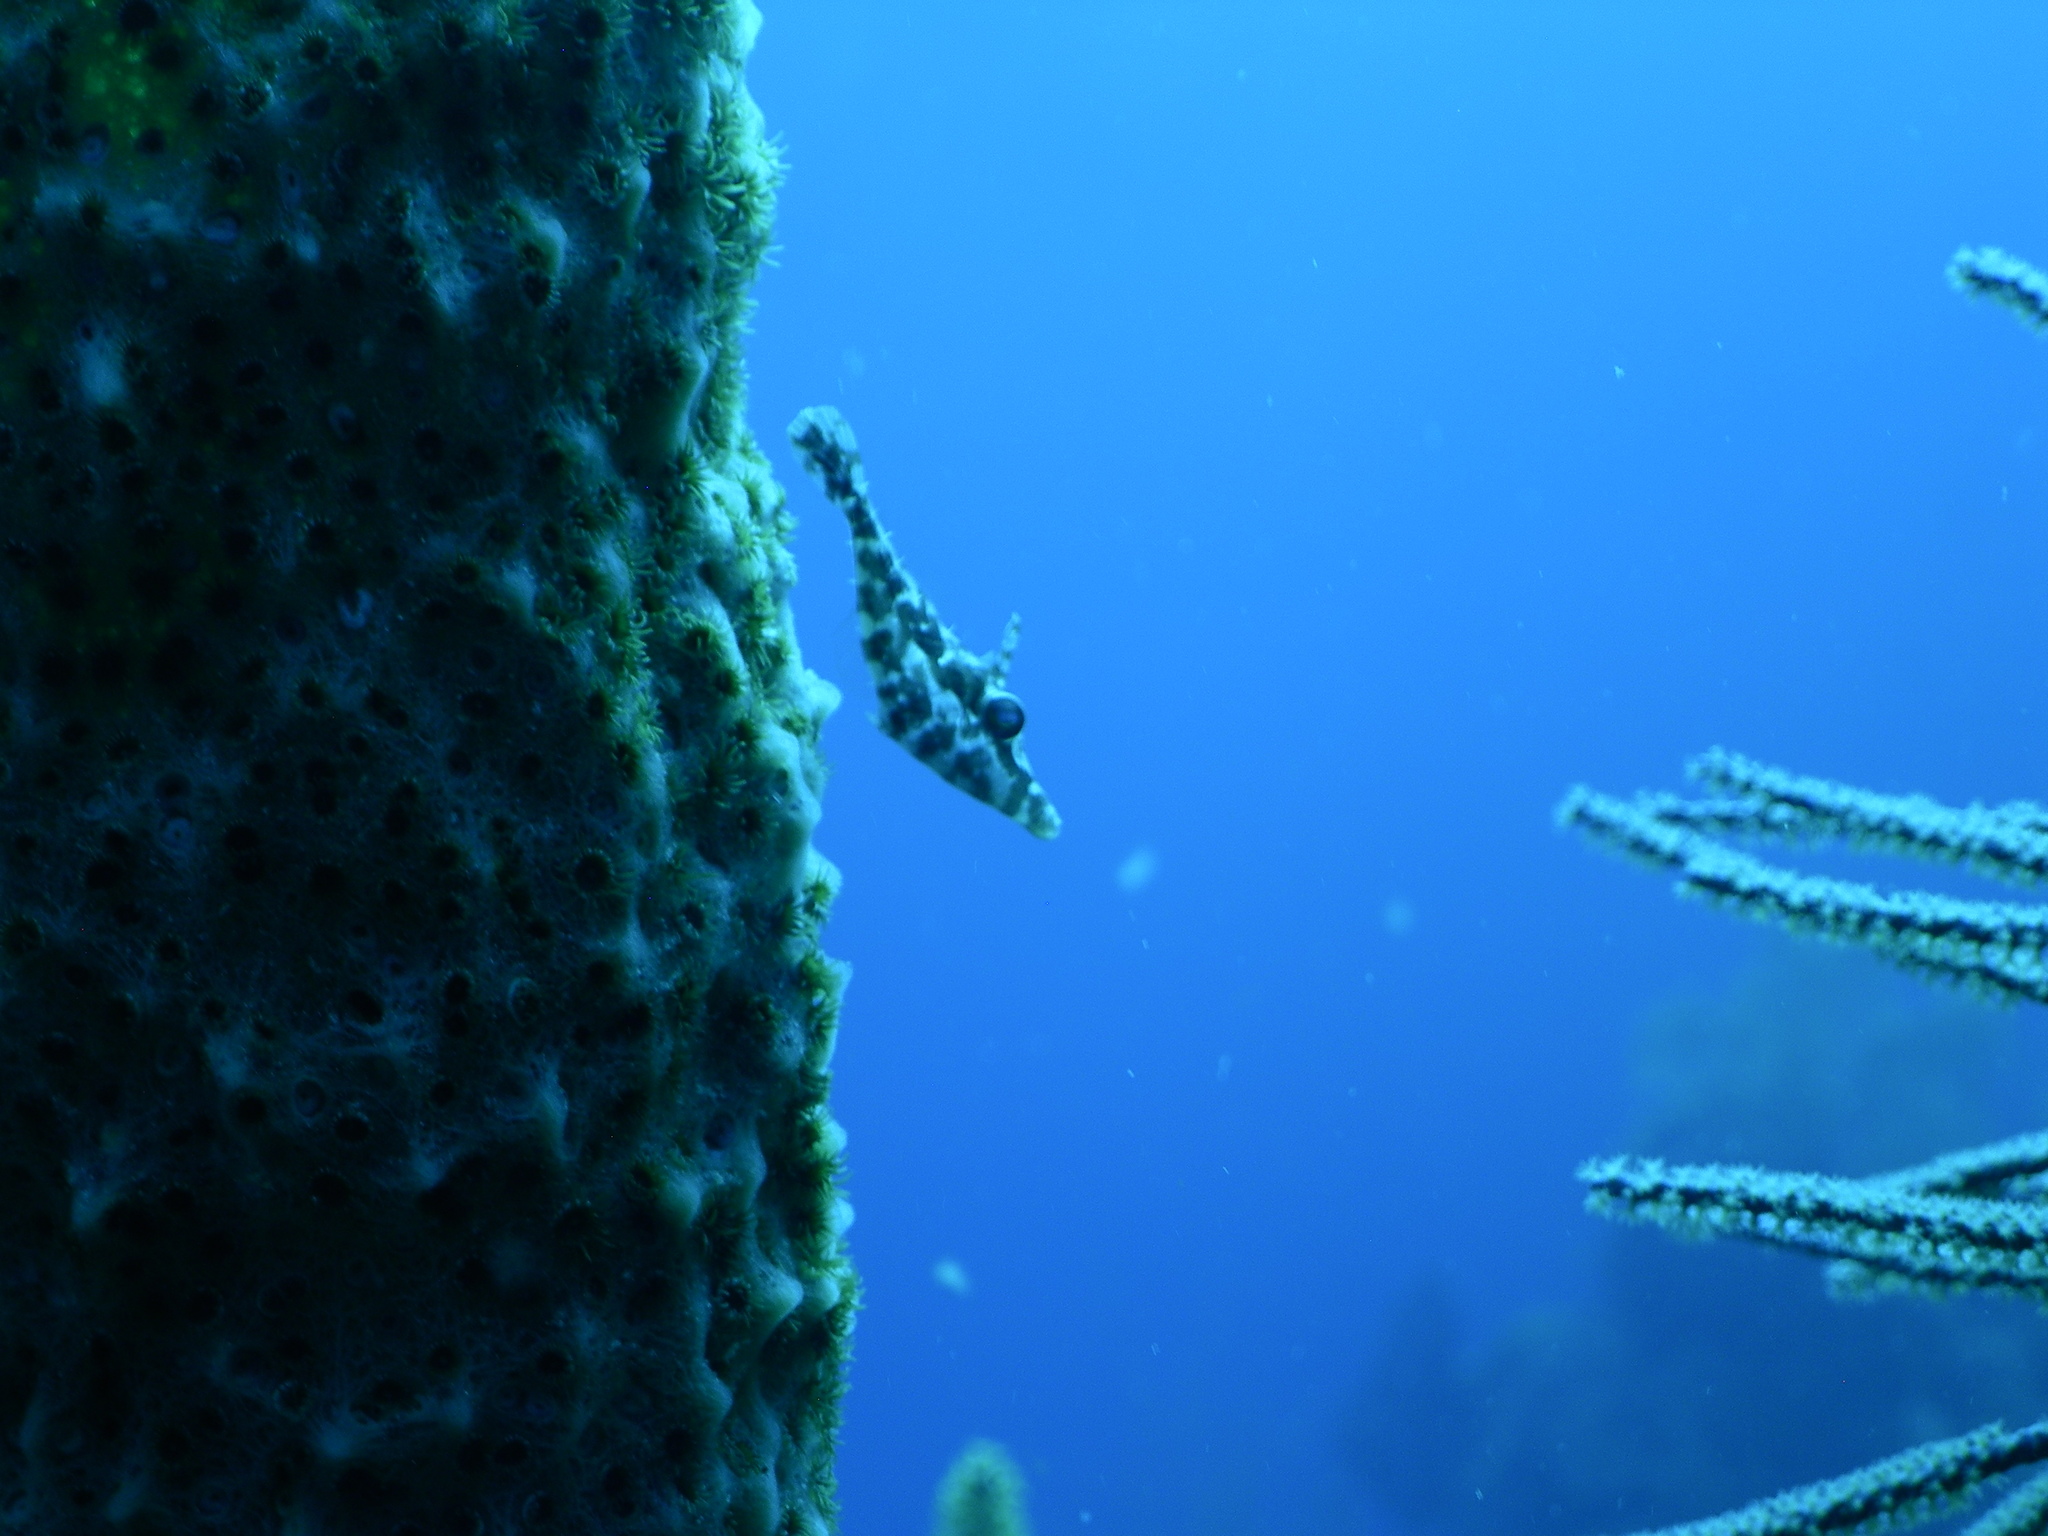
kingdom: Animalia
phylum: Chordata
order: Tetraodontiformes
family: Monacanthidae
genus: Monacanthus
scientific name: Monacanthus tuckeri
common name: Slender filefish
